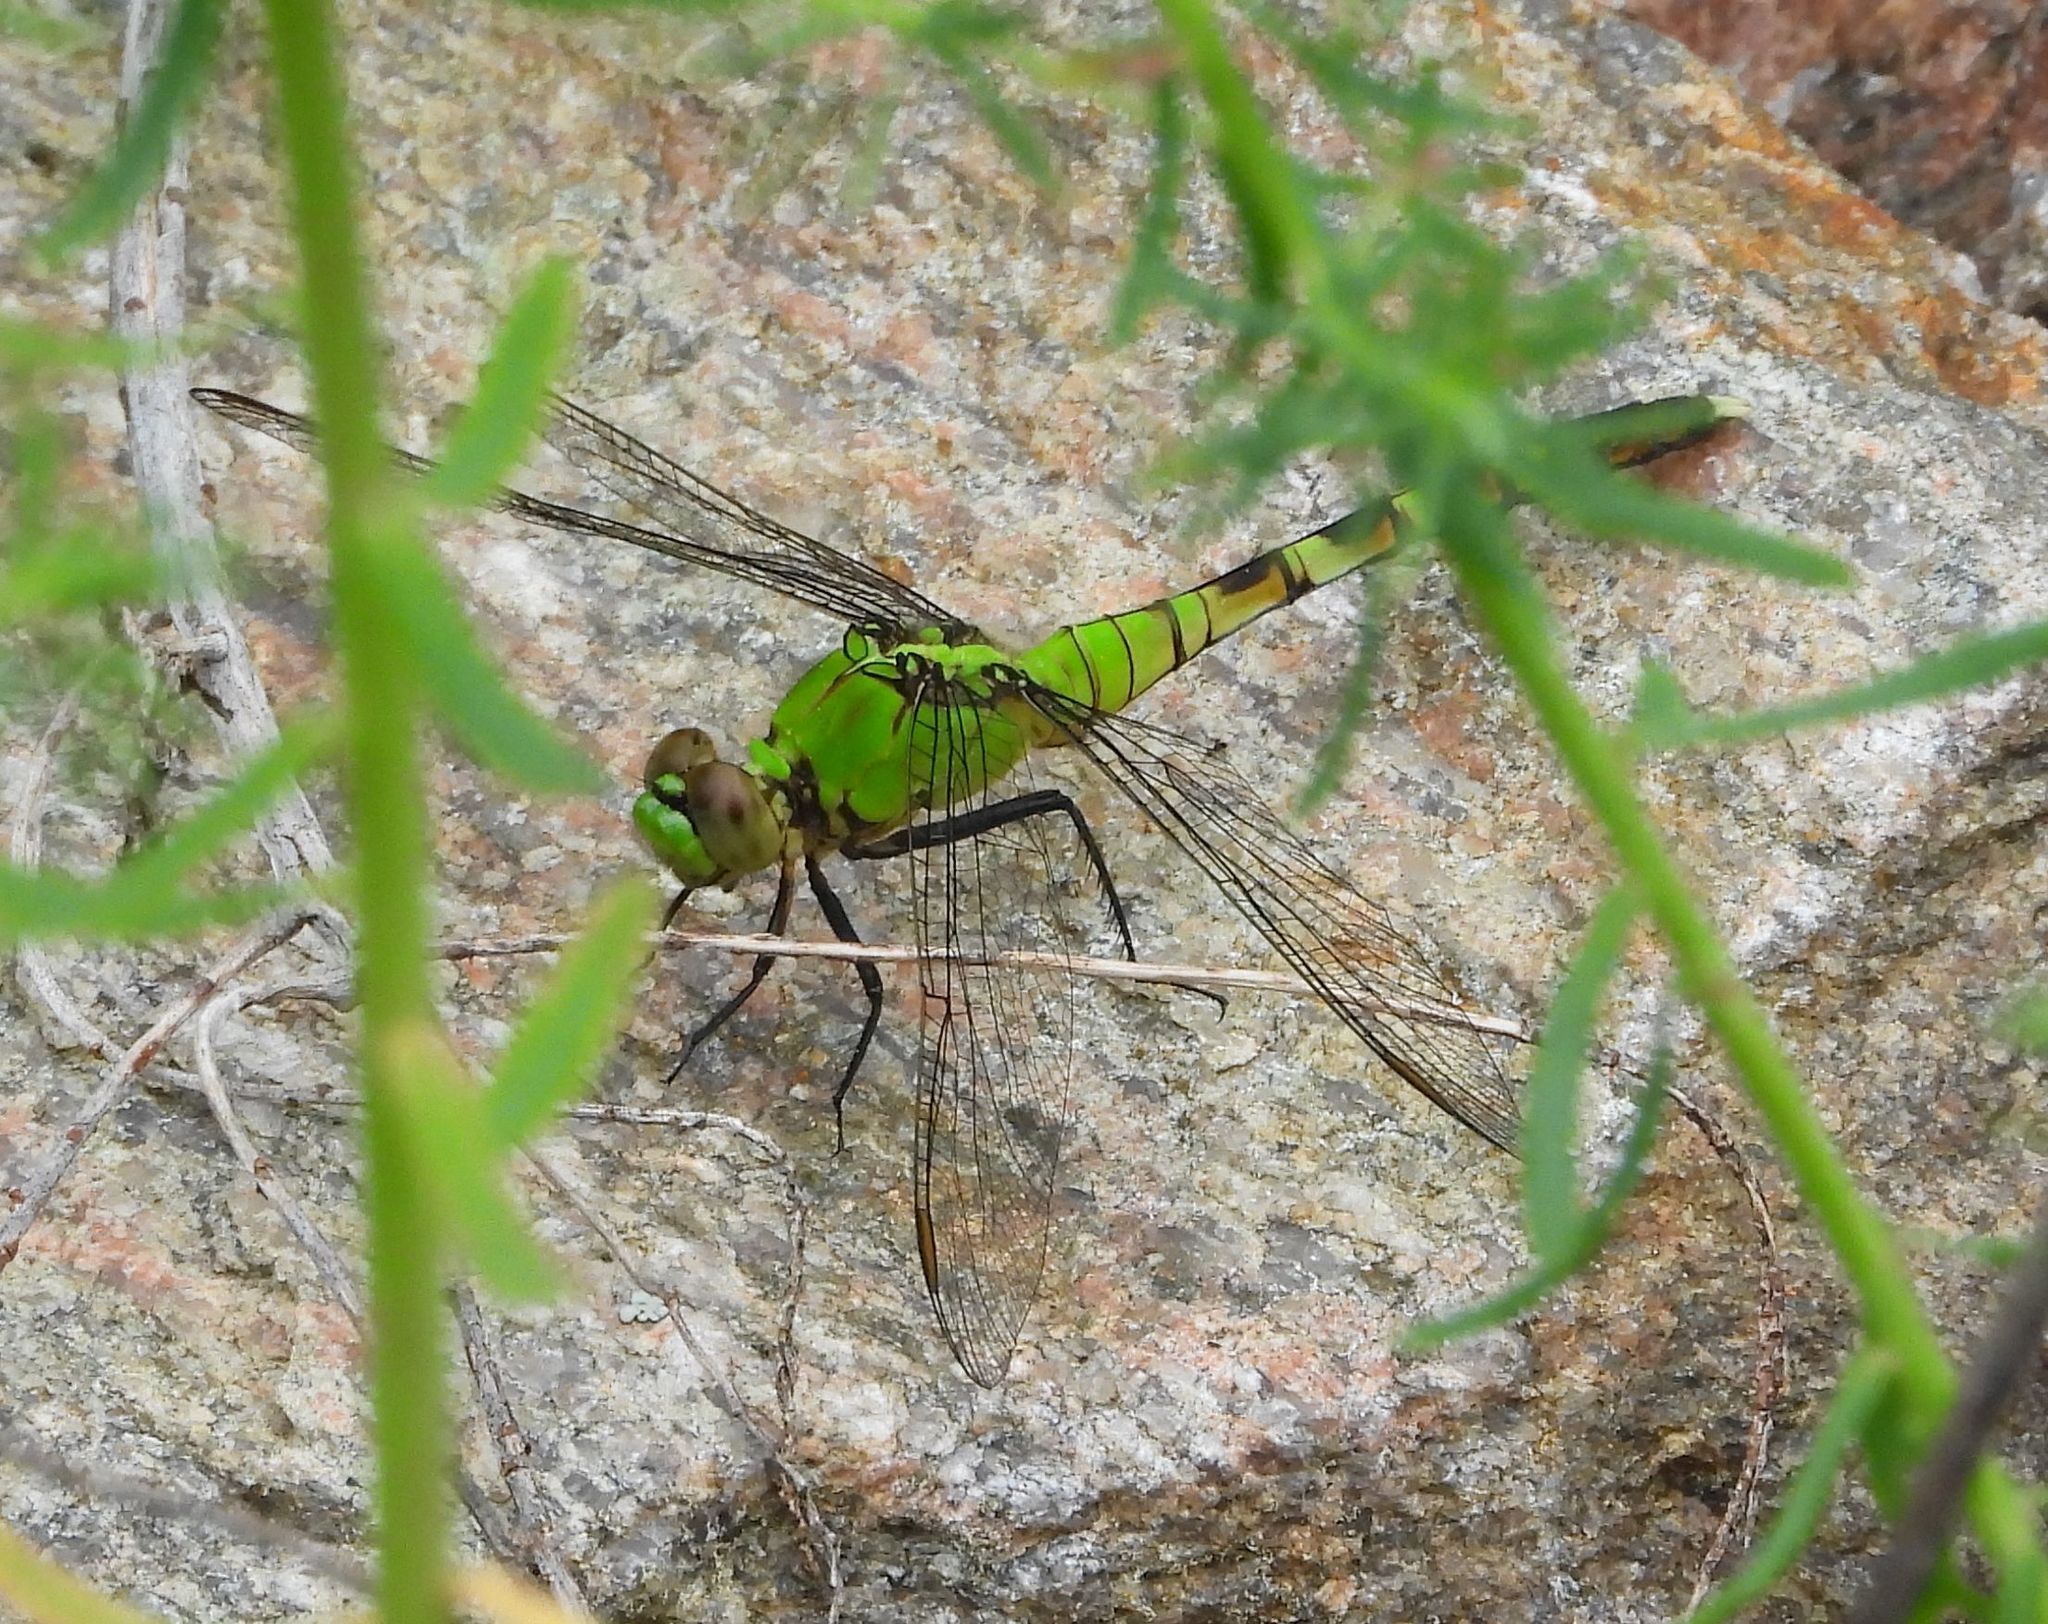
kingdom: Animalia
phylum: Arthropoda
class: Insecta
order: Odonata
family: Libellulidae
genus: Erythemis
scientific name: Erythemis simplicicollis
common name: Eastern pondhawk
